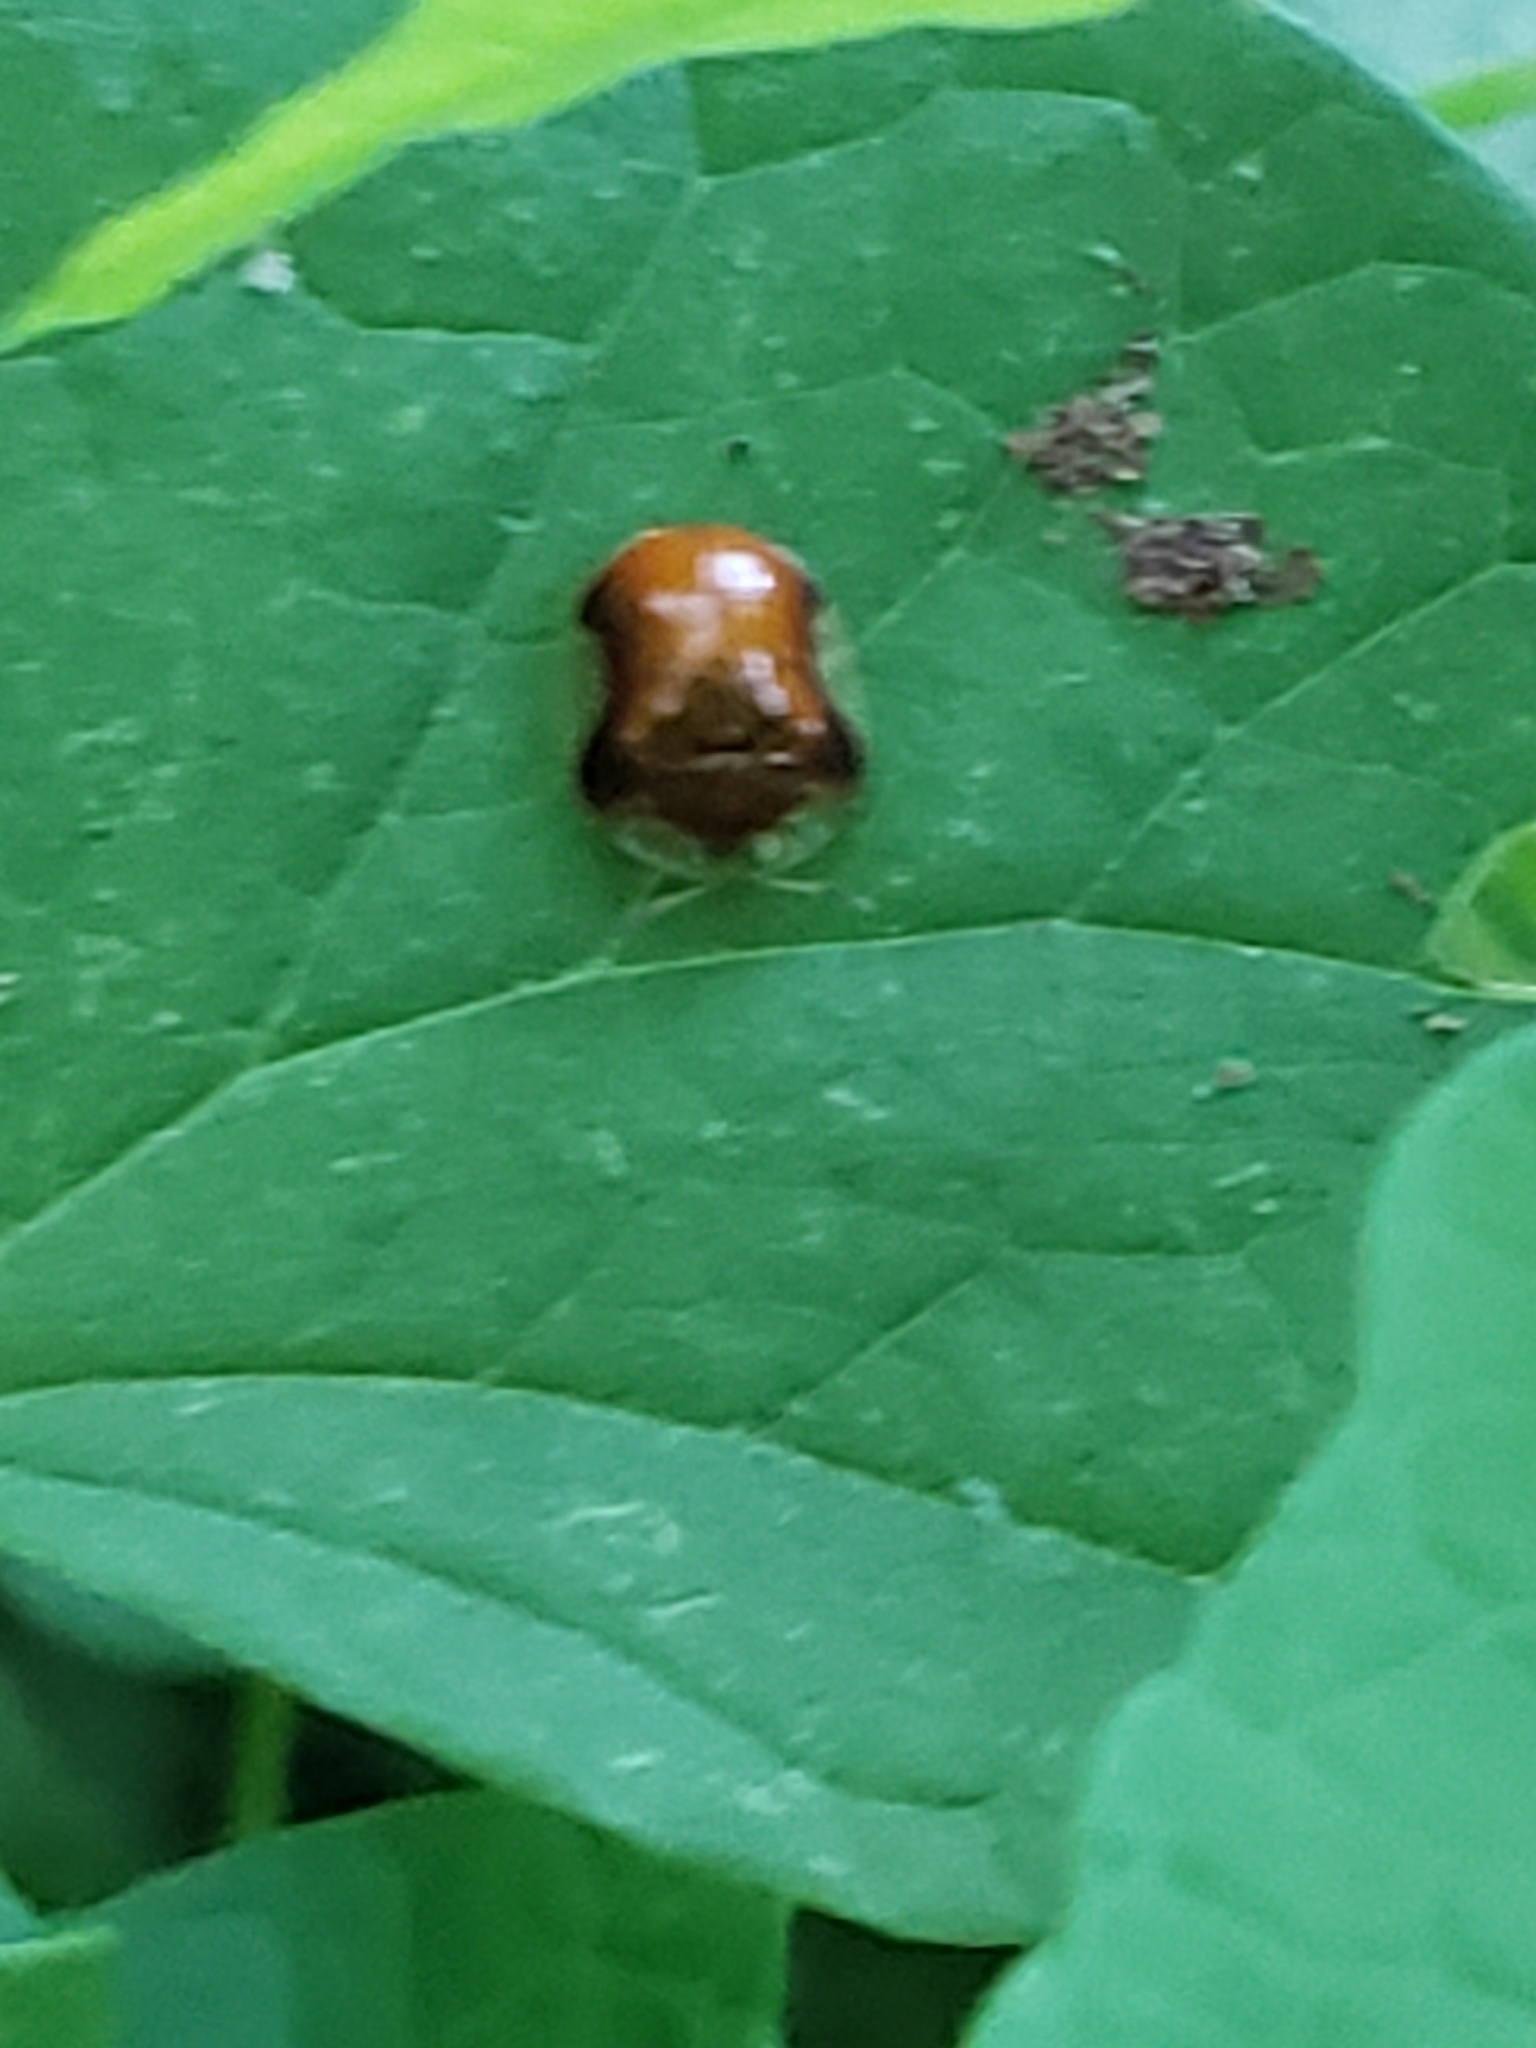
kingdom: Animalia
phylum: Arthropoda
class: Insecta
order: Coleoptera
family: Chrysomelidae
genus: Charidotella
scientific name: Charidotella purpurata
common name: Small orange tortoise beetle
